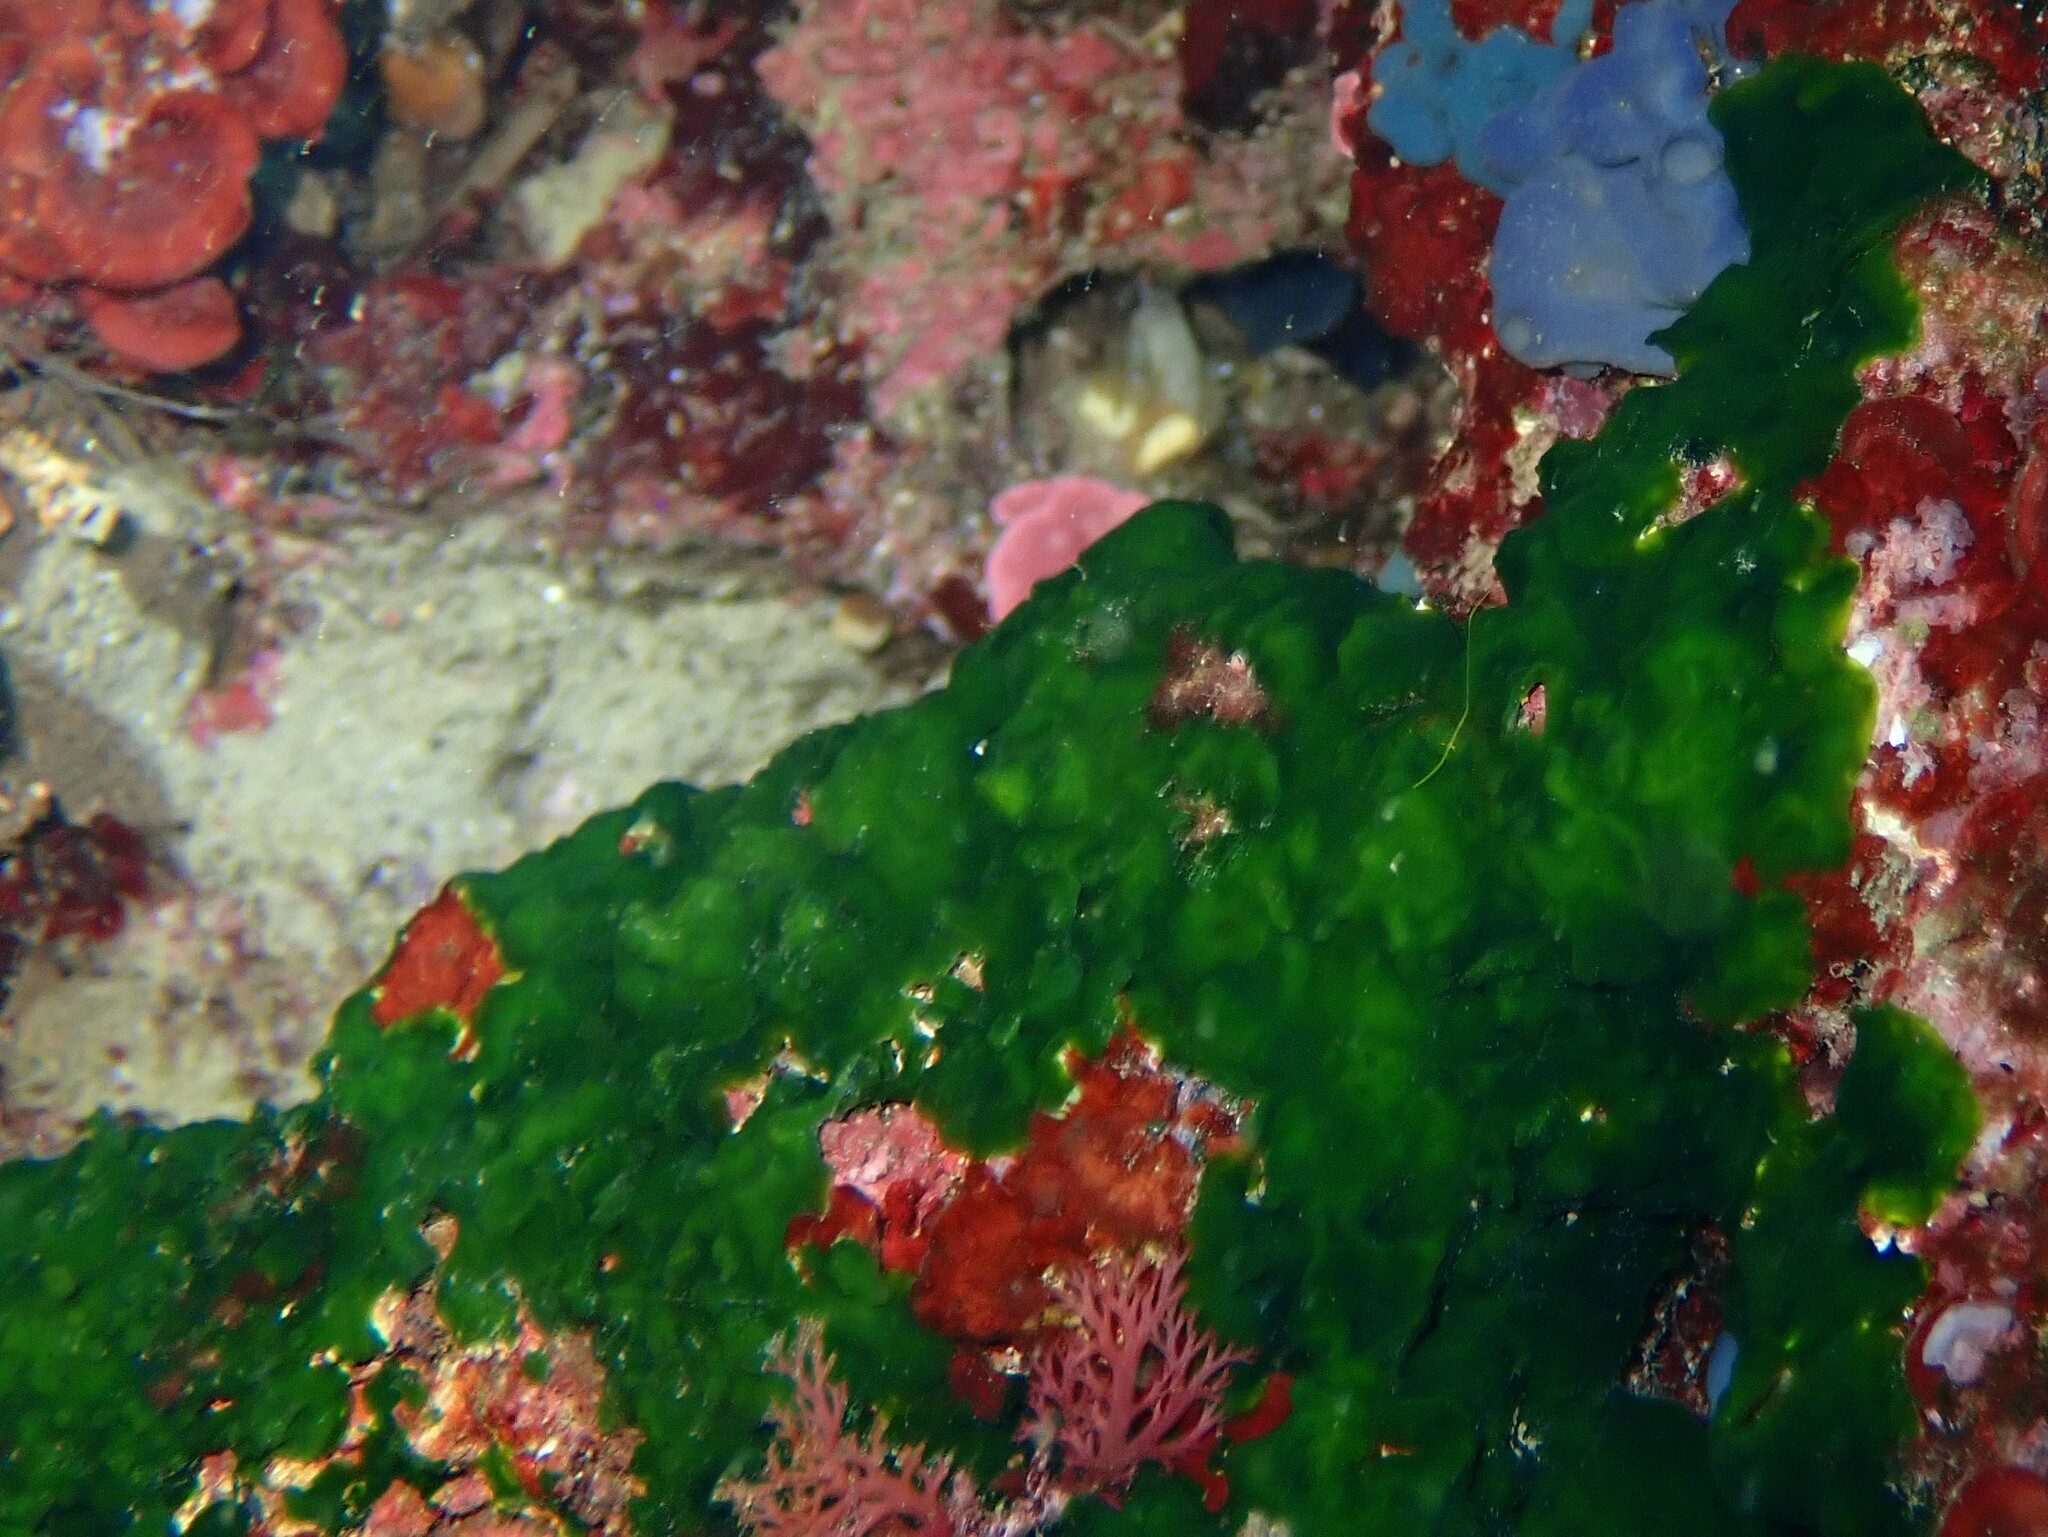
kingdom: Plantae
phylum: Chlorophyta
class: Palmophyllophyceae
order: Palmophyllales
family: Palmophyllaceae
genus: Palmophyllum
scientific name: Palmophyllum crassum
